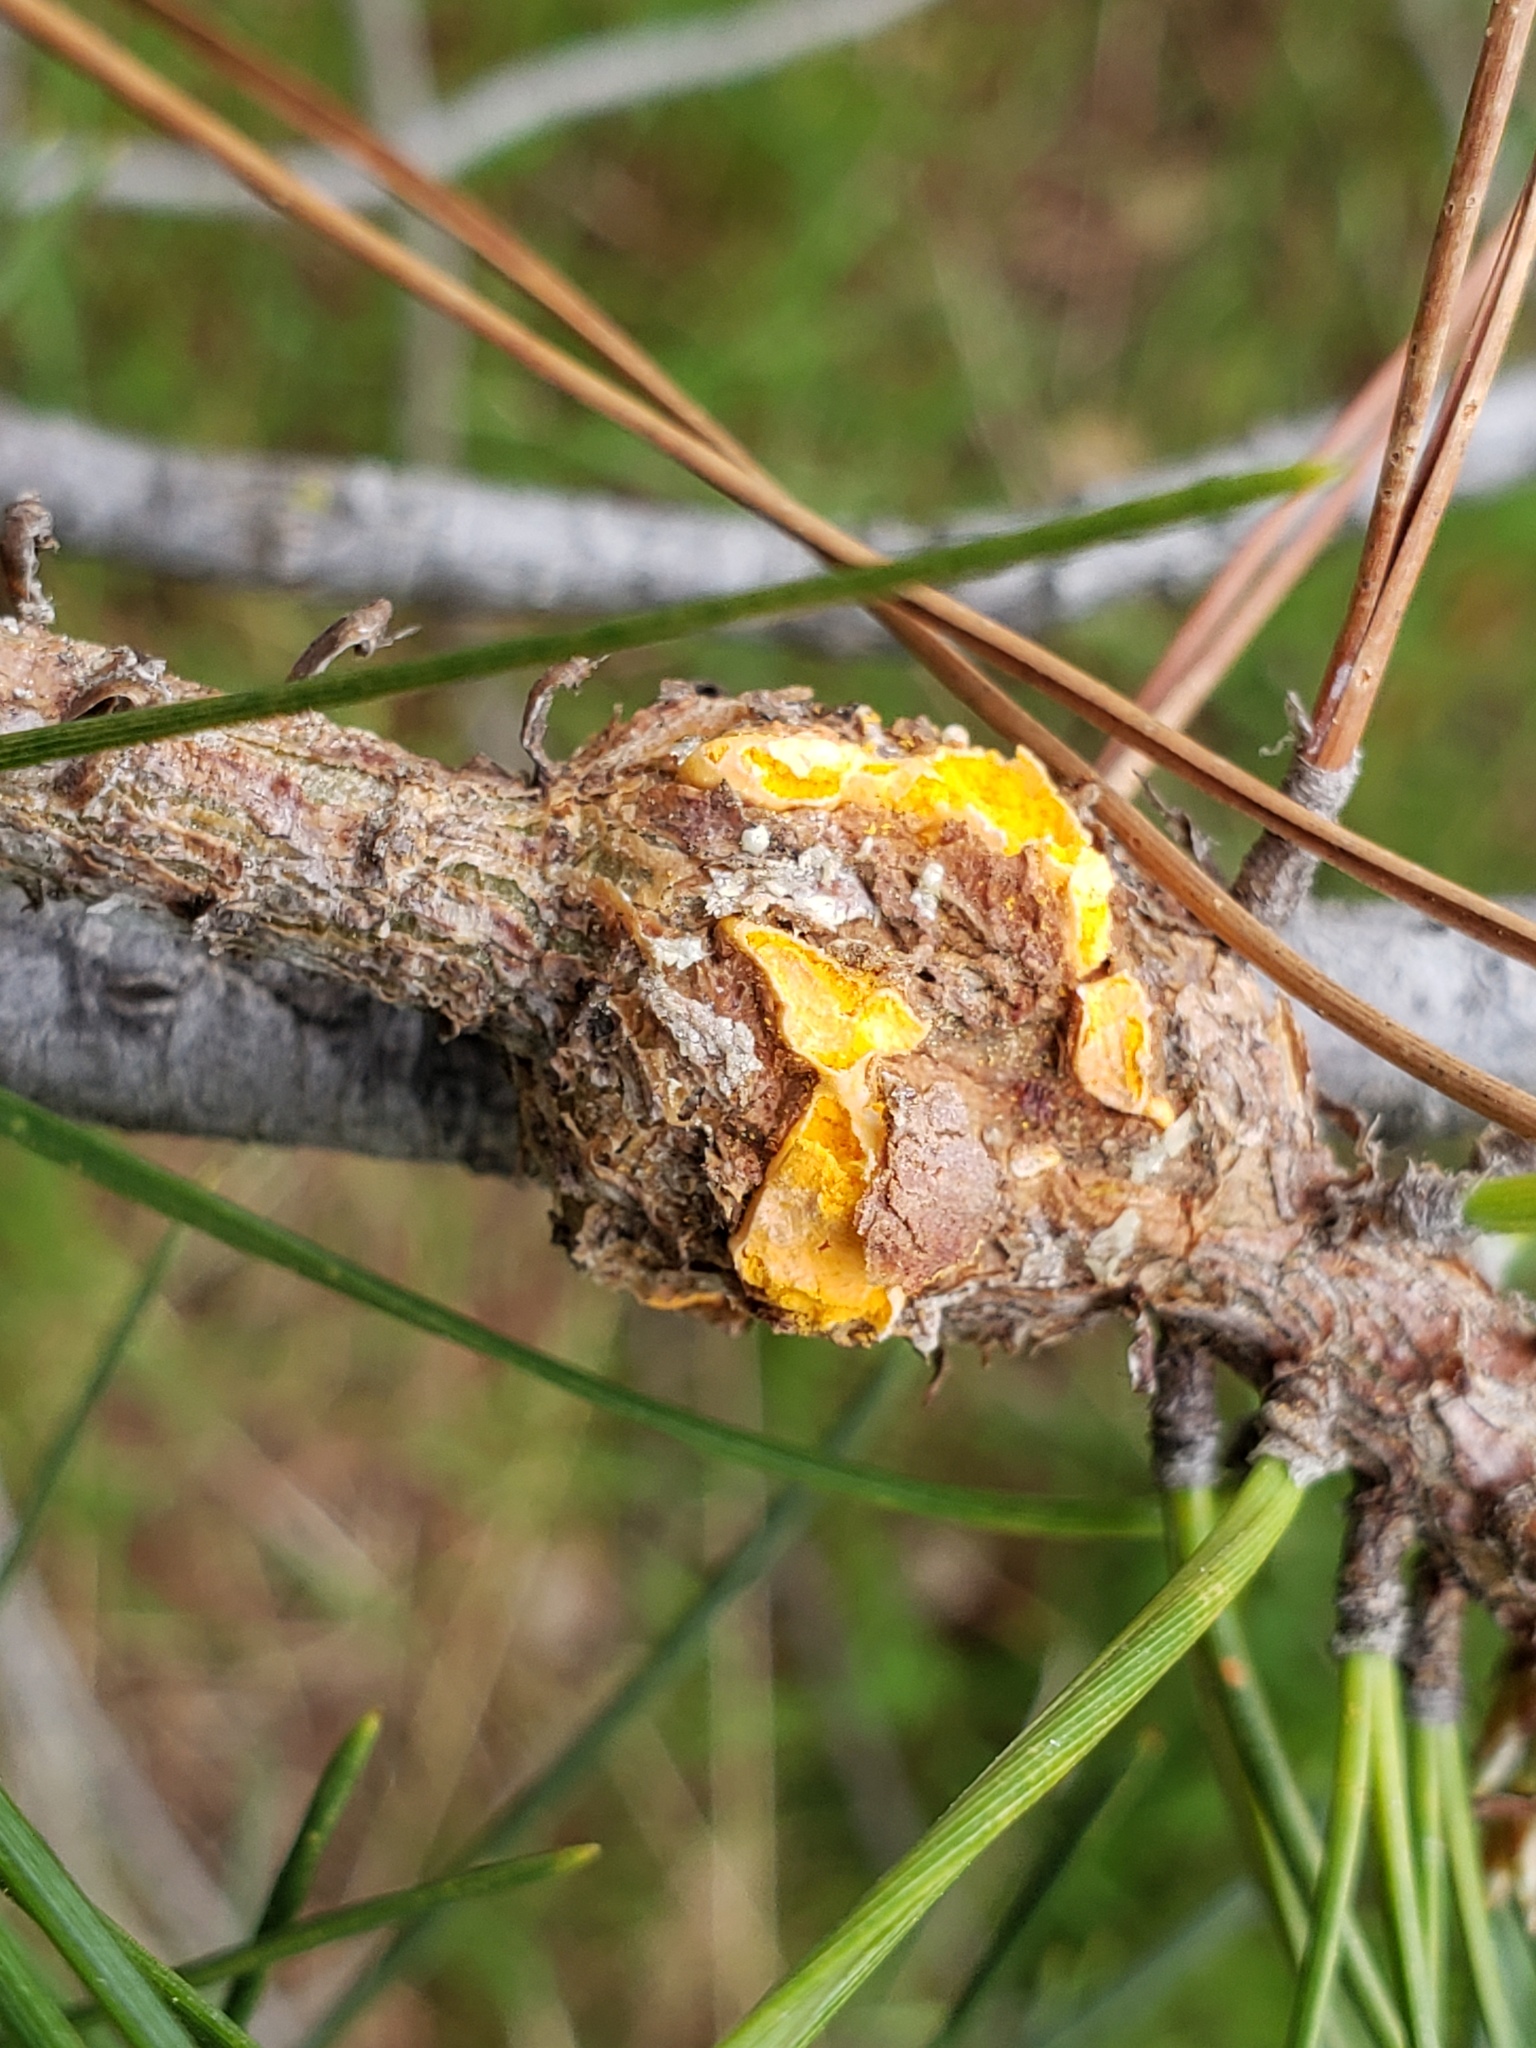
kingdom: Fungi
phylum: Basidiomycota
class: Pucciniomycetes
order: Pucciniales
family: Cronartiaceae
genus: Cronartium
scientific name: Cronartium harknessii
